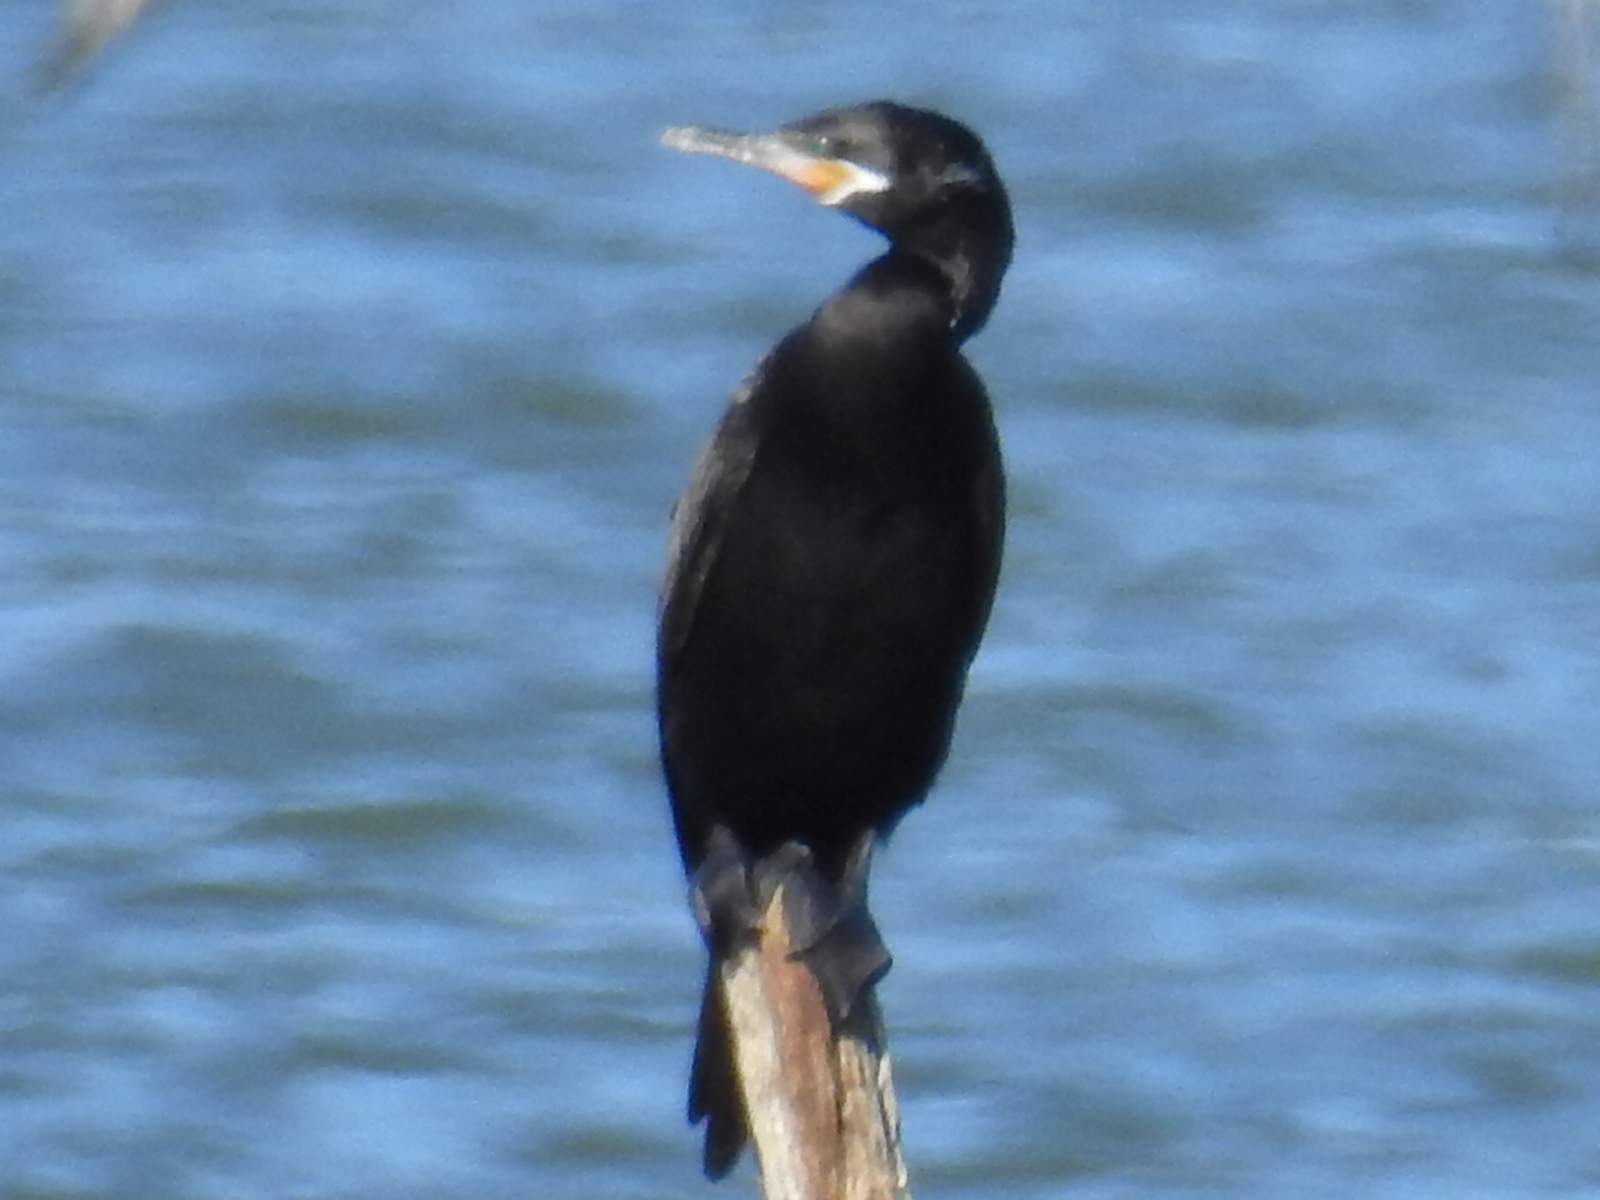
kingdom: Animalia
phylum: Chordata
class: Aves
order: Suliformes
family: Phalacrocoracidae
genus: Phalacrocorax
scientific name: Phalacrocorax brasilianus
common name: Neotropic cormorant
